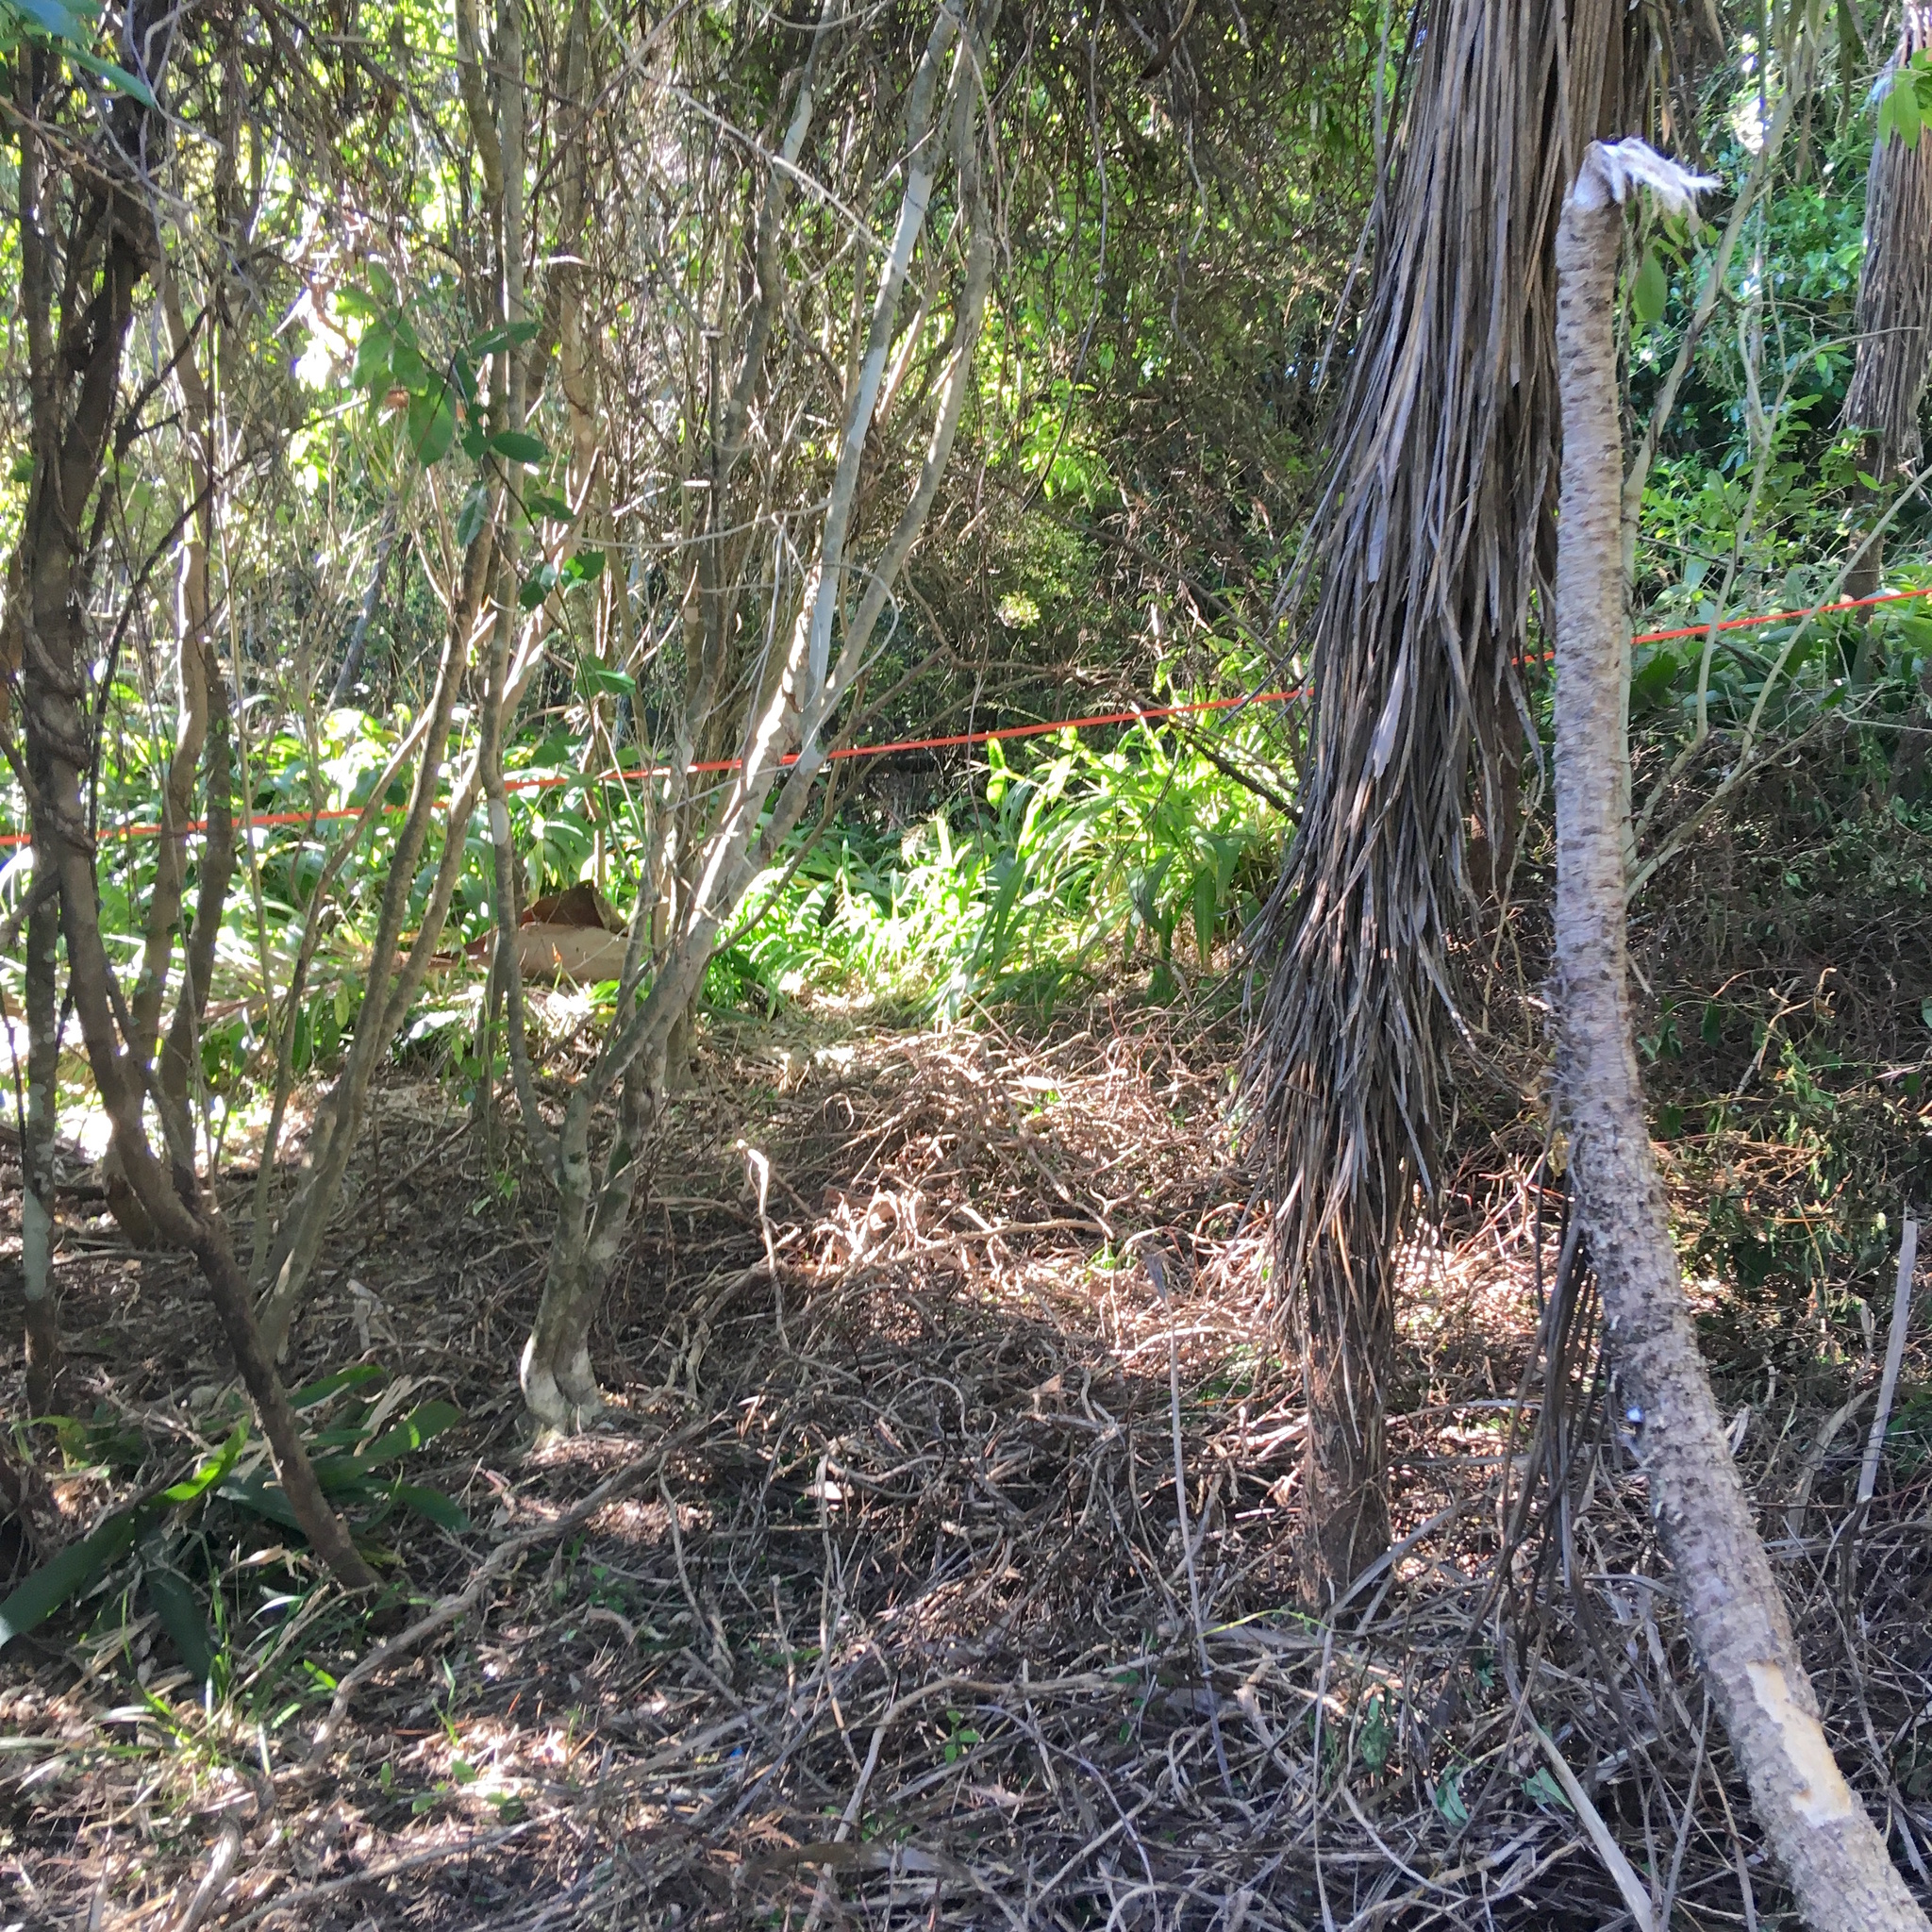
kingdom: Plantae
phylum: Tracheophyta
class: Magnoliopsida
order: Malpighiales
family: Violaceae
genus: Melicytus
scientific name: Melicytus ramiflorus
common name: Mahoe
